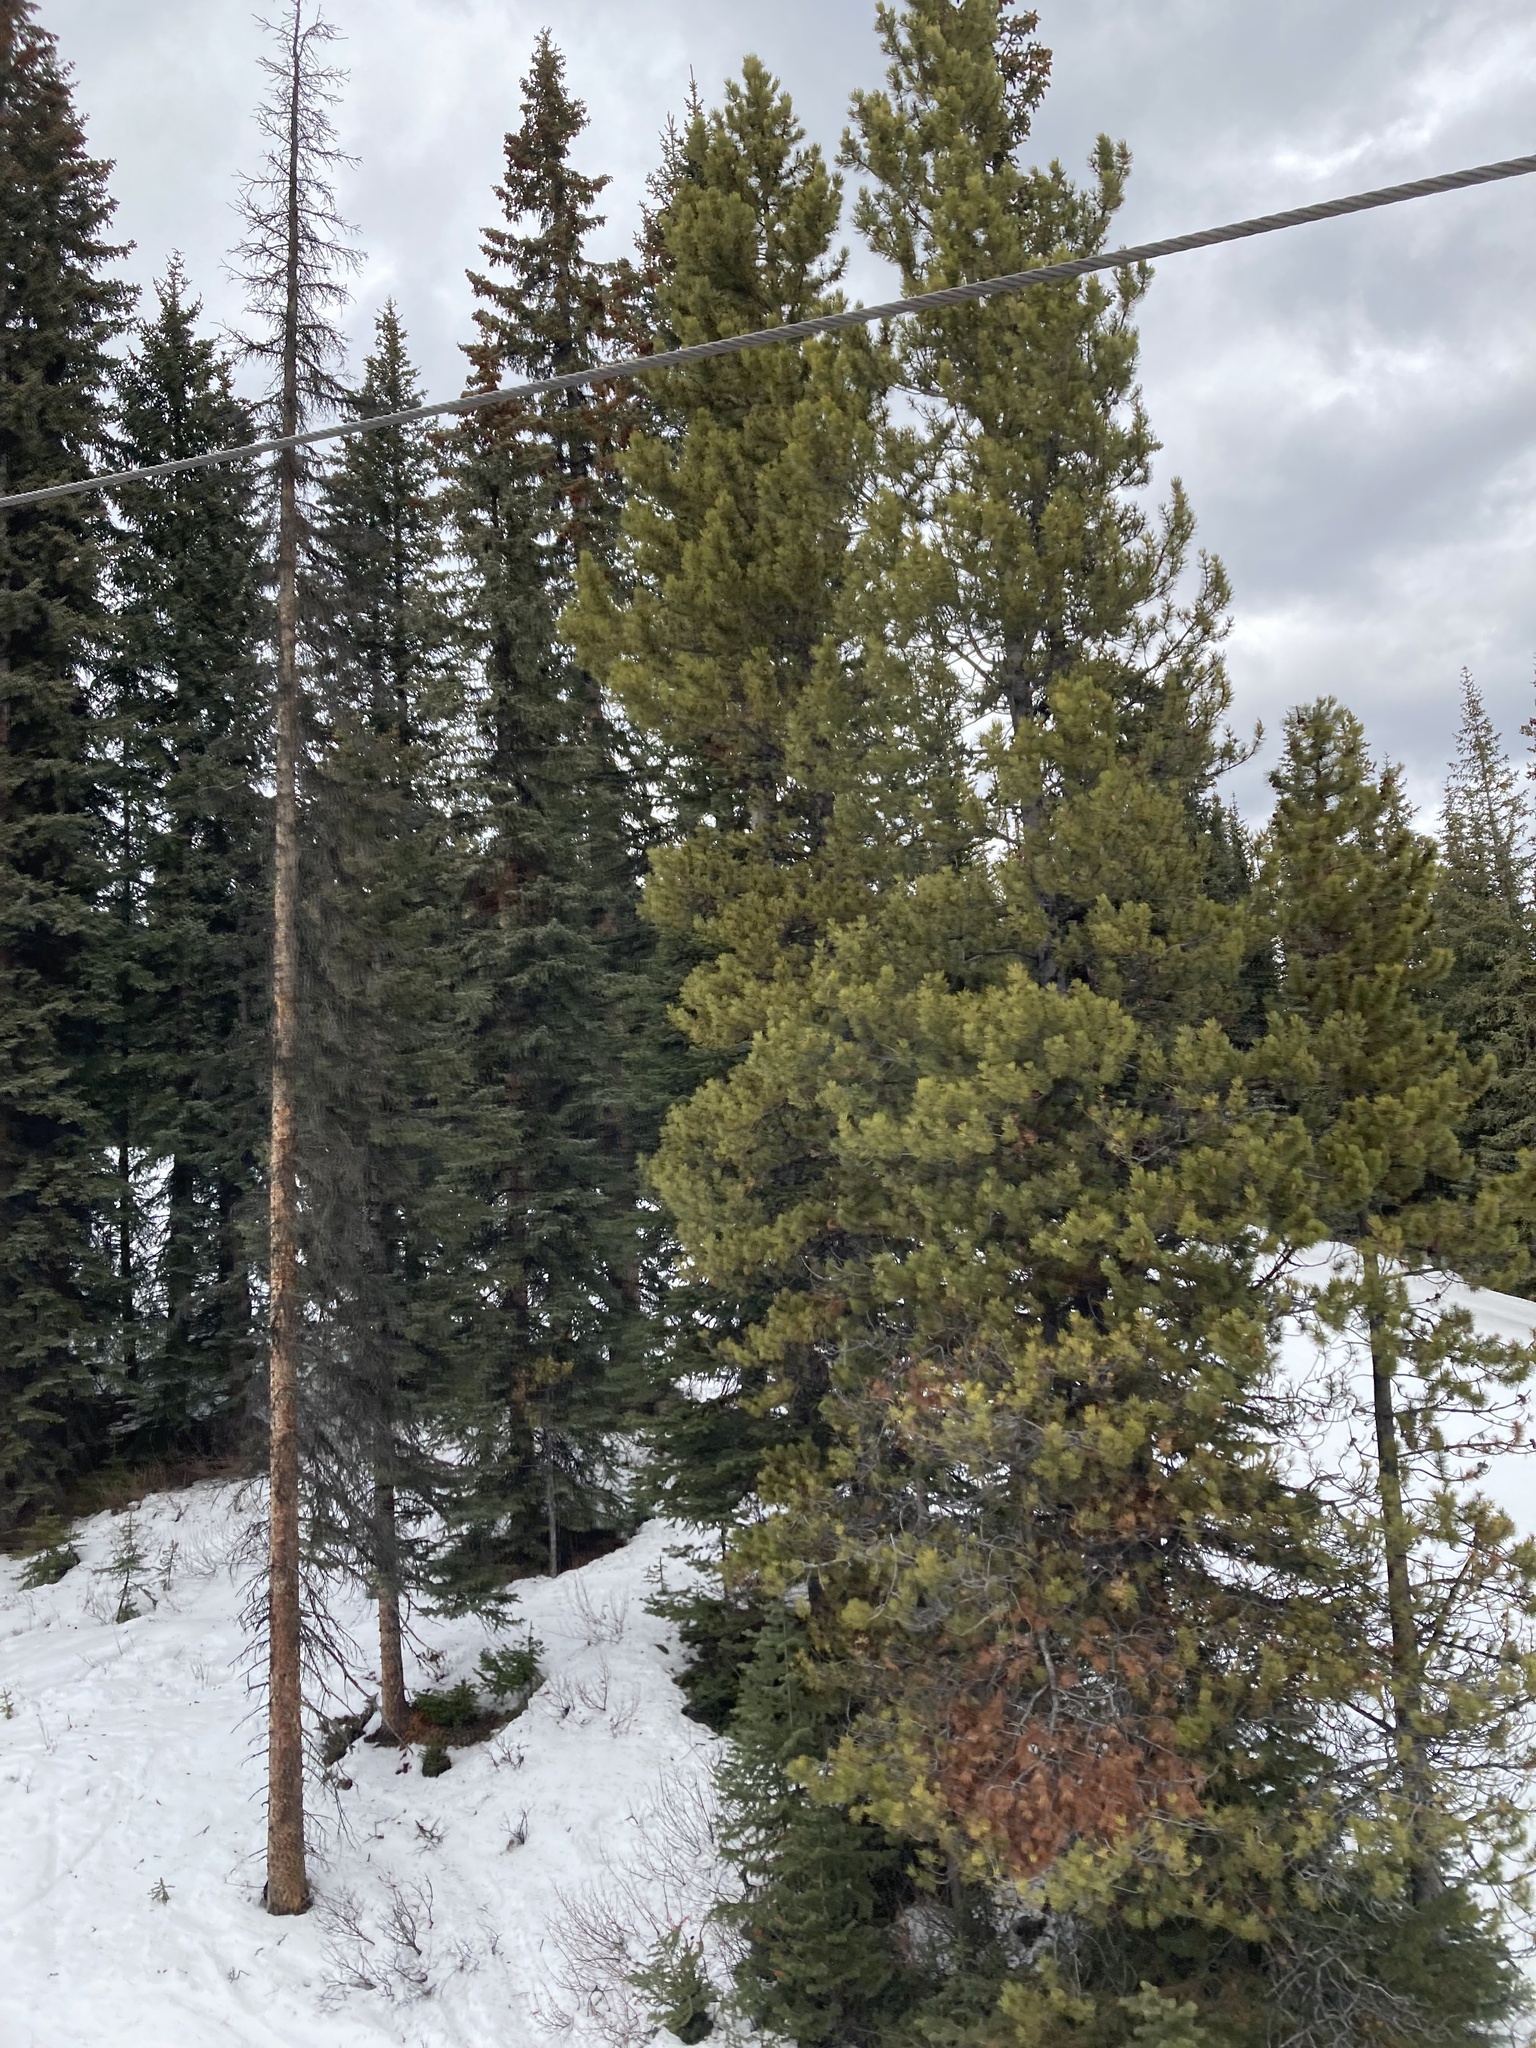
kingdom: Plantae
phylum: Tracheophyta
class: Pinopsida
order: Pinales
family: Pinaceae
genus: Pinus
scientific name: Pinus contorta
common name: Lodgepole pine
